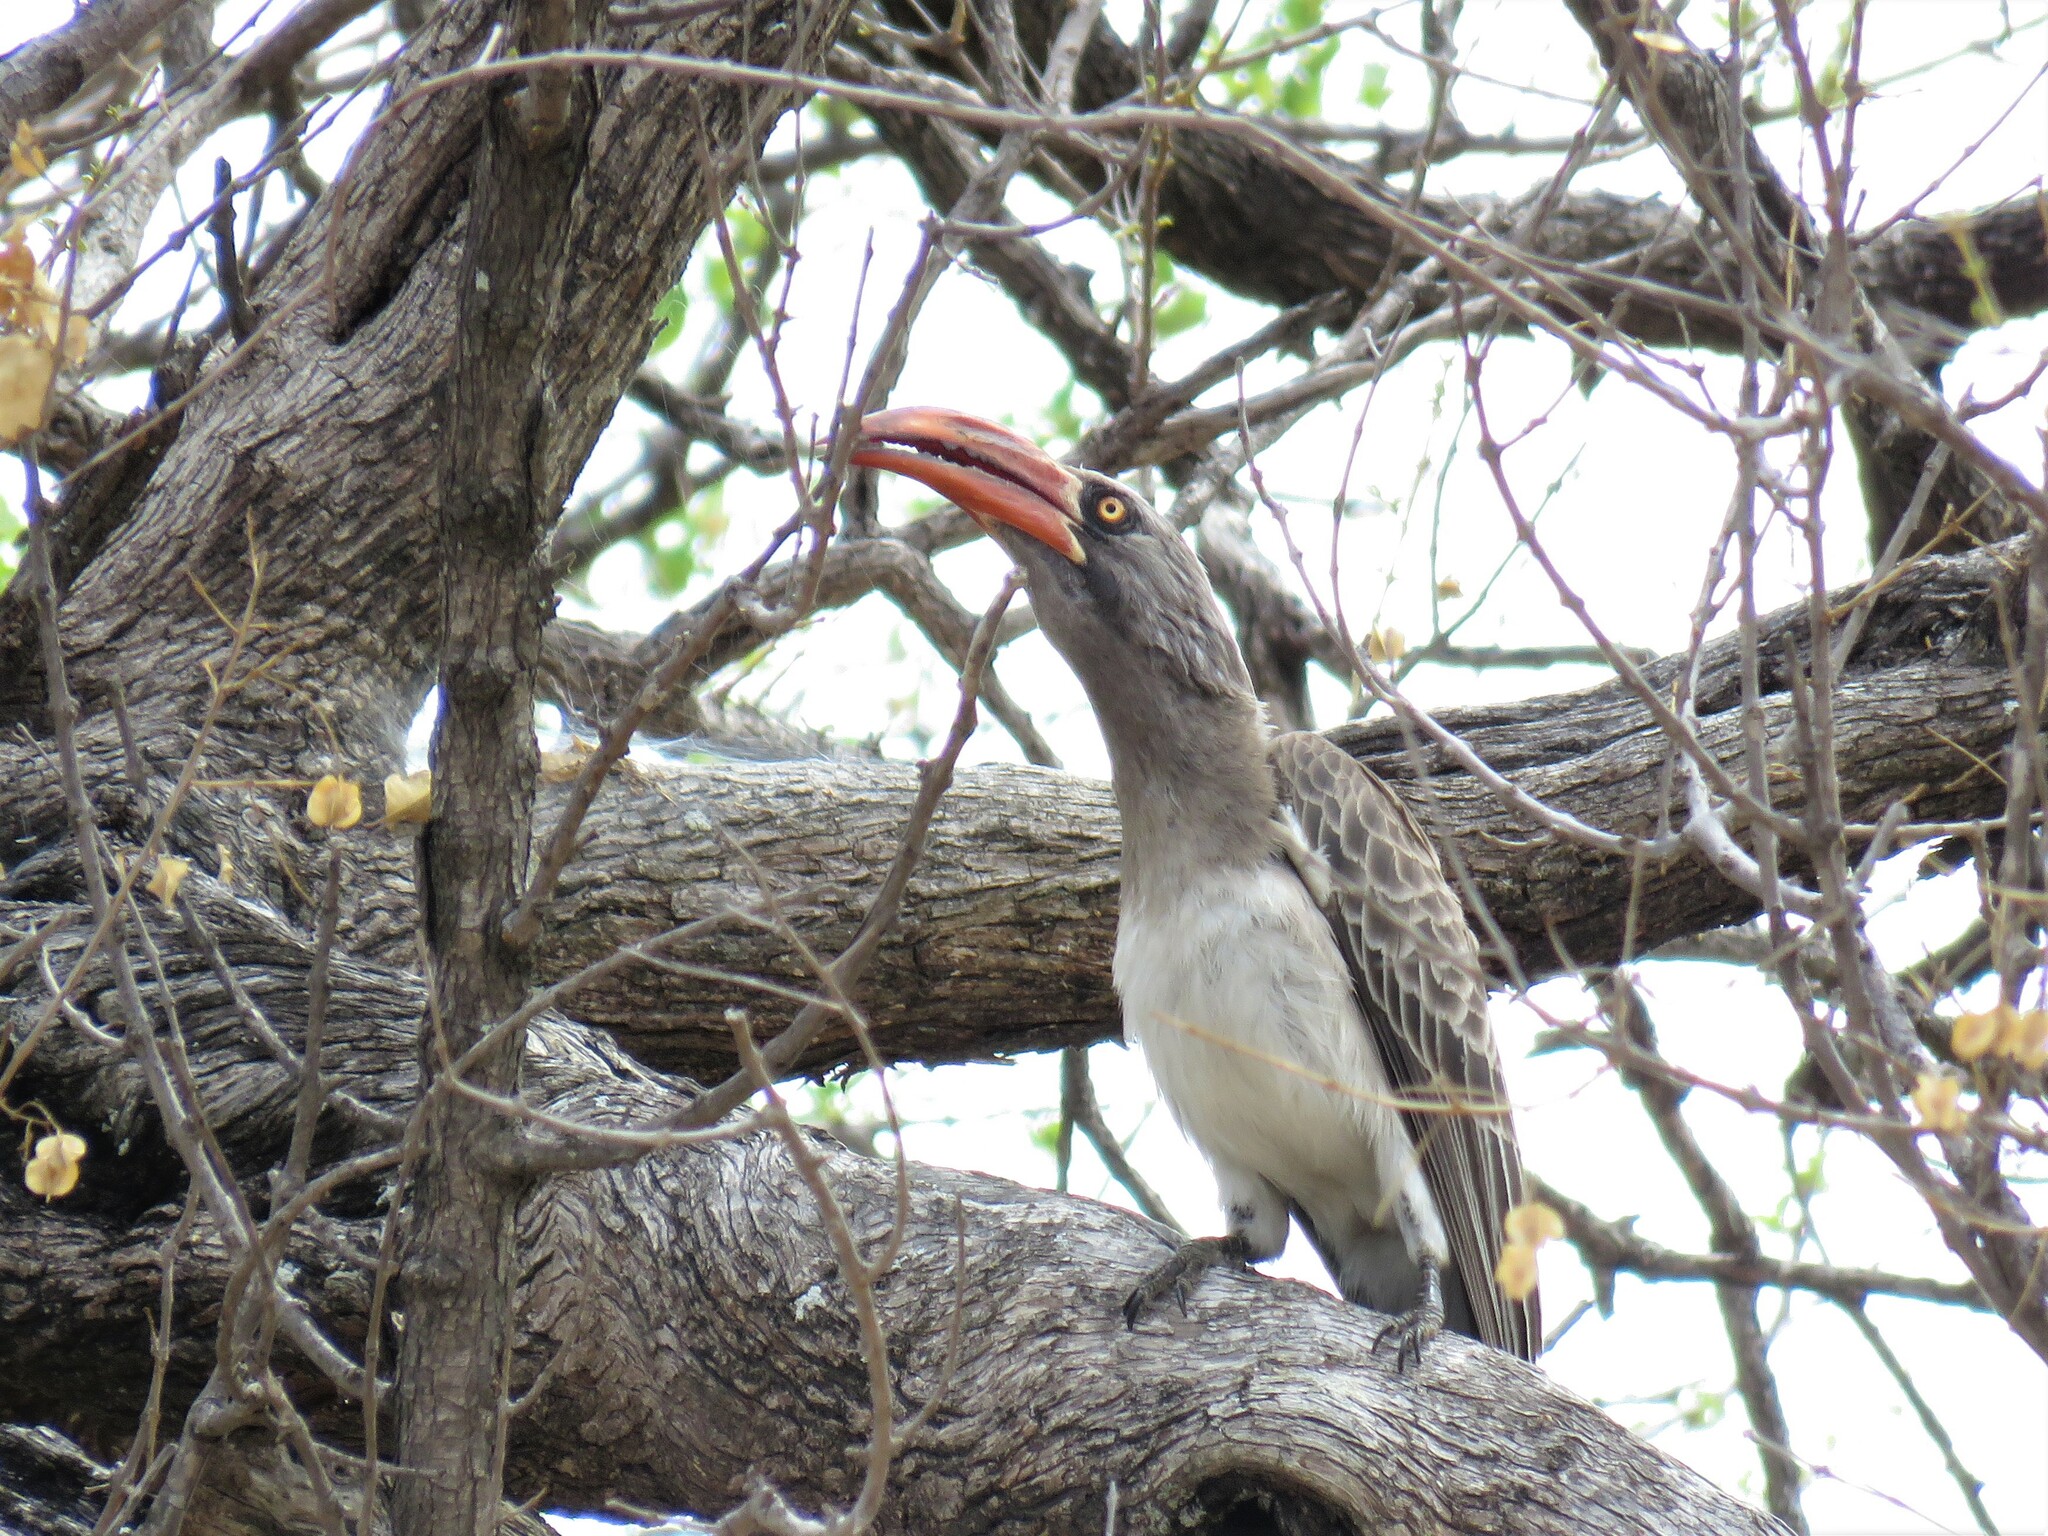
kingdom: Animalia
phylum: Chordata
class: Aves
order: Bucerotiformes
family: Bucerotidae
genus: Lophoceros
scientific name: Lophoceros bradfieldi
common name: Bradfield's hornbill
